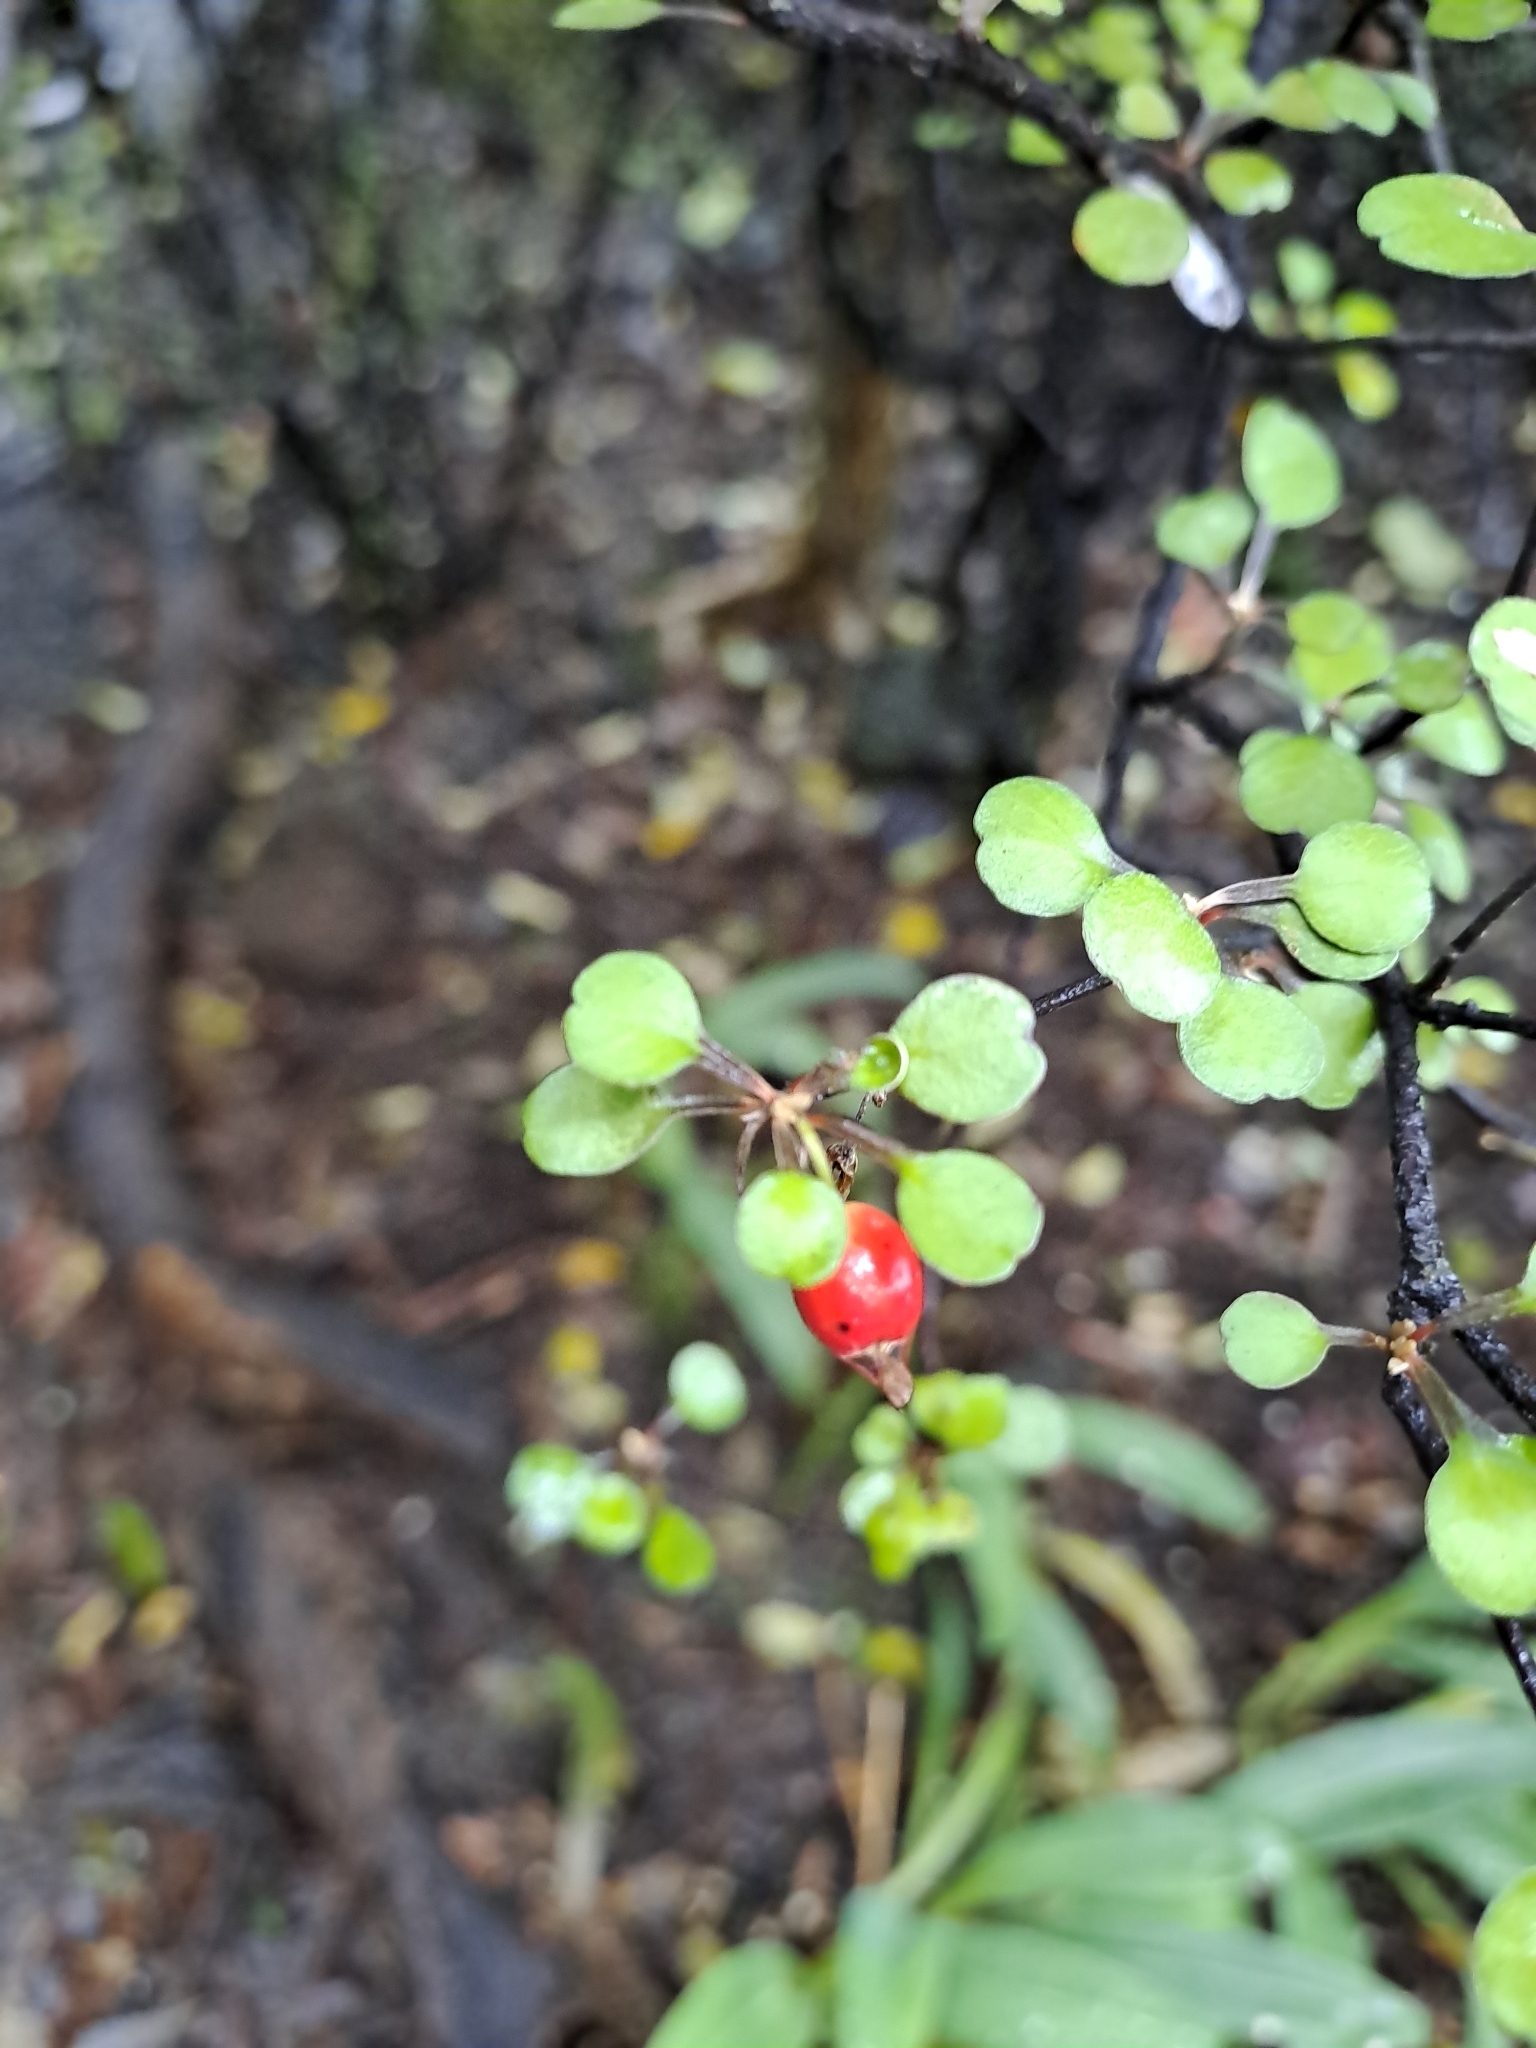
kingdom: Plantae
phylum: Tracheophyta
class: Magnoliopsida
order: Asterales
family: Argophyllaceae
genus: Corokia
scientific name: Corokia cotoneaster
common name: Wire nettingbush
